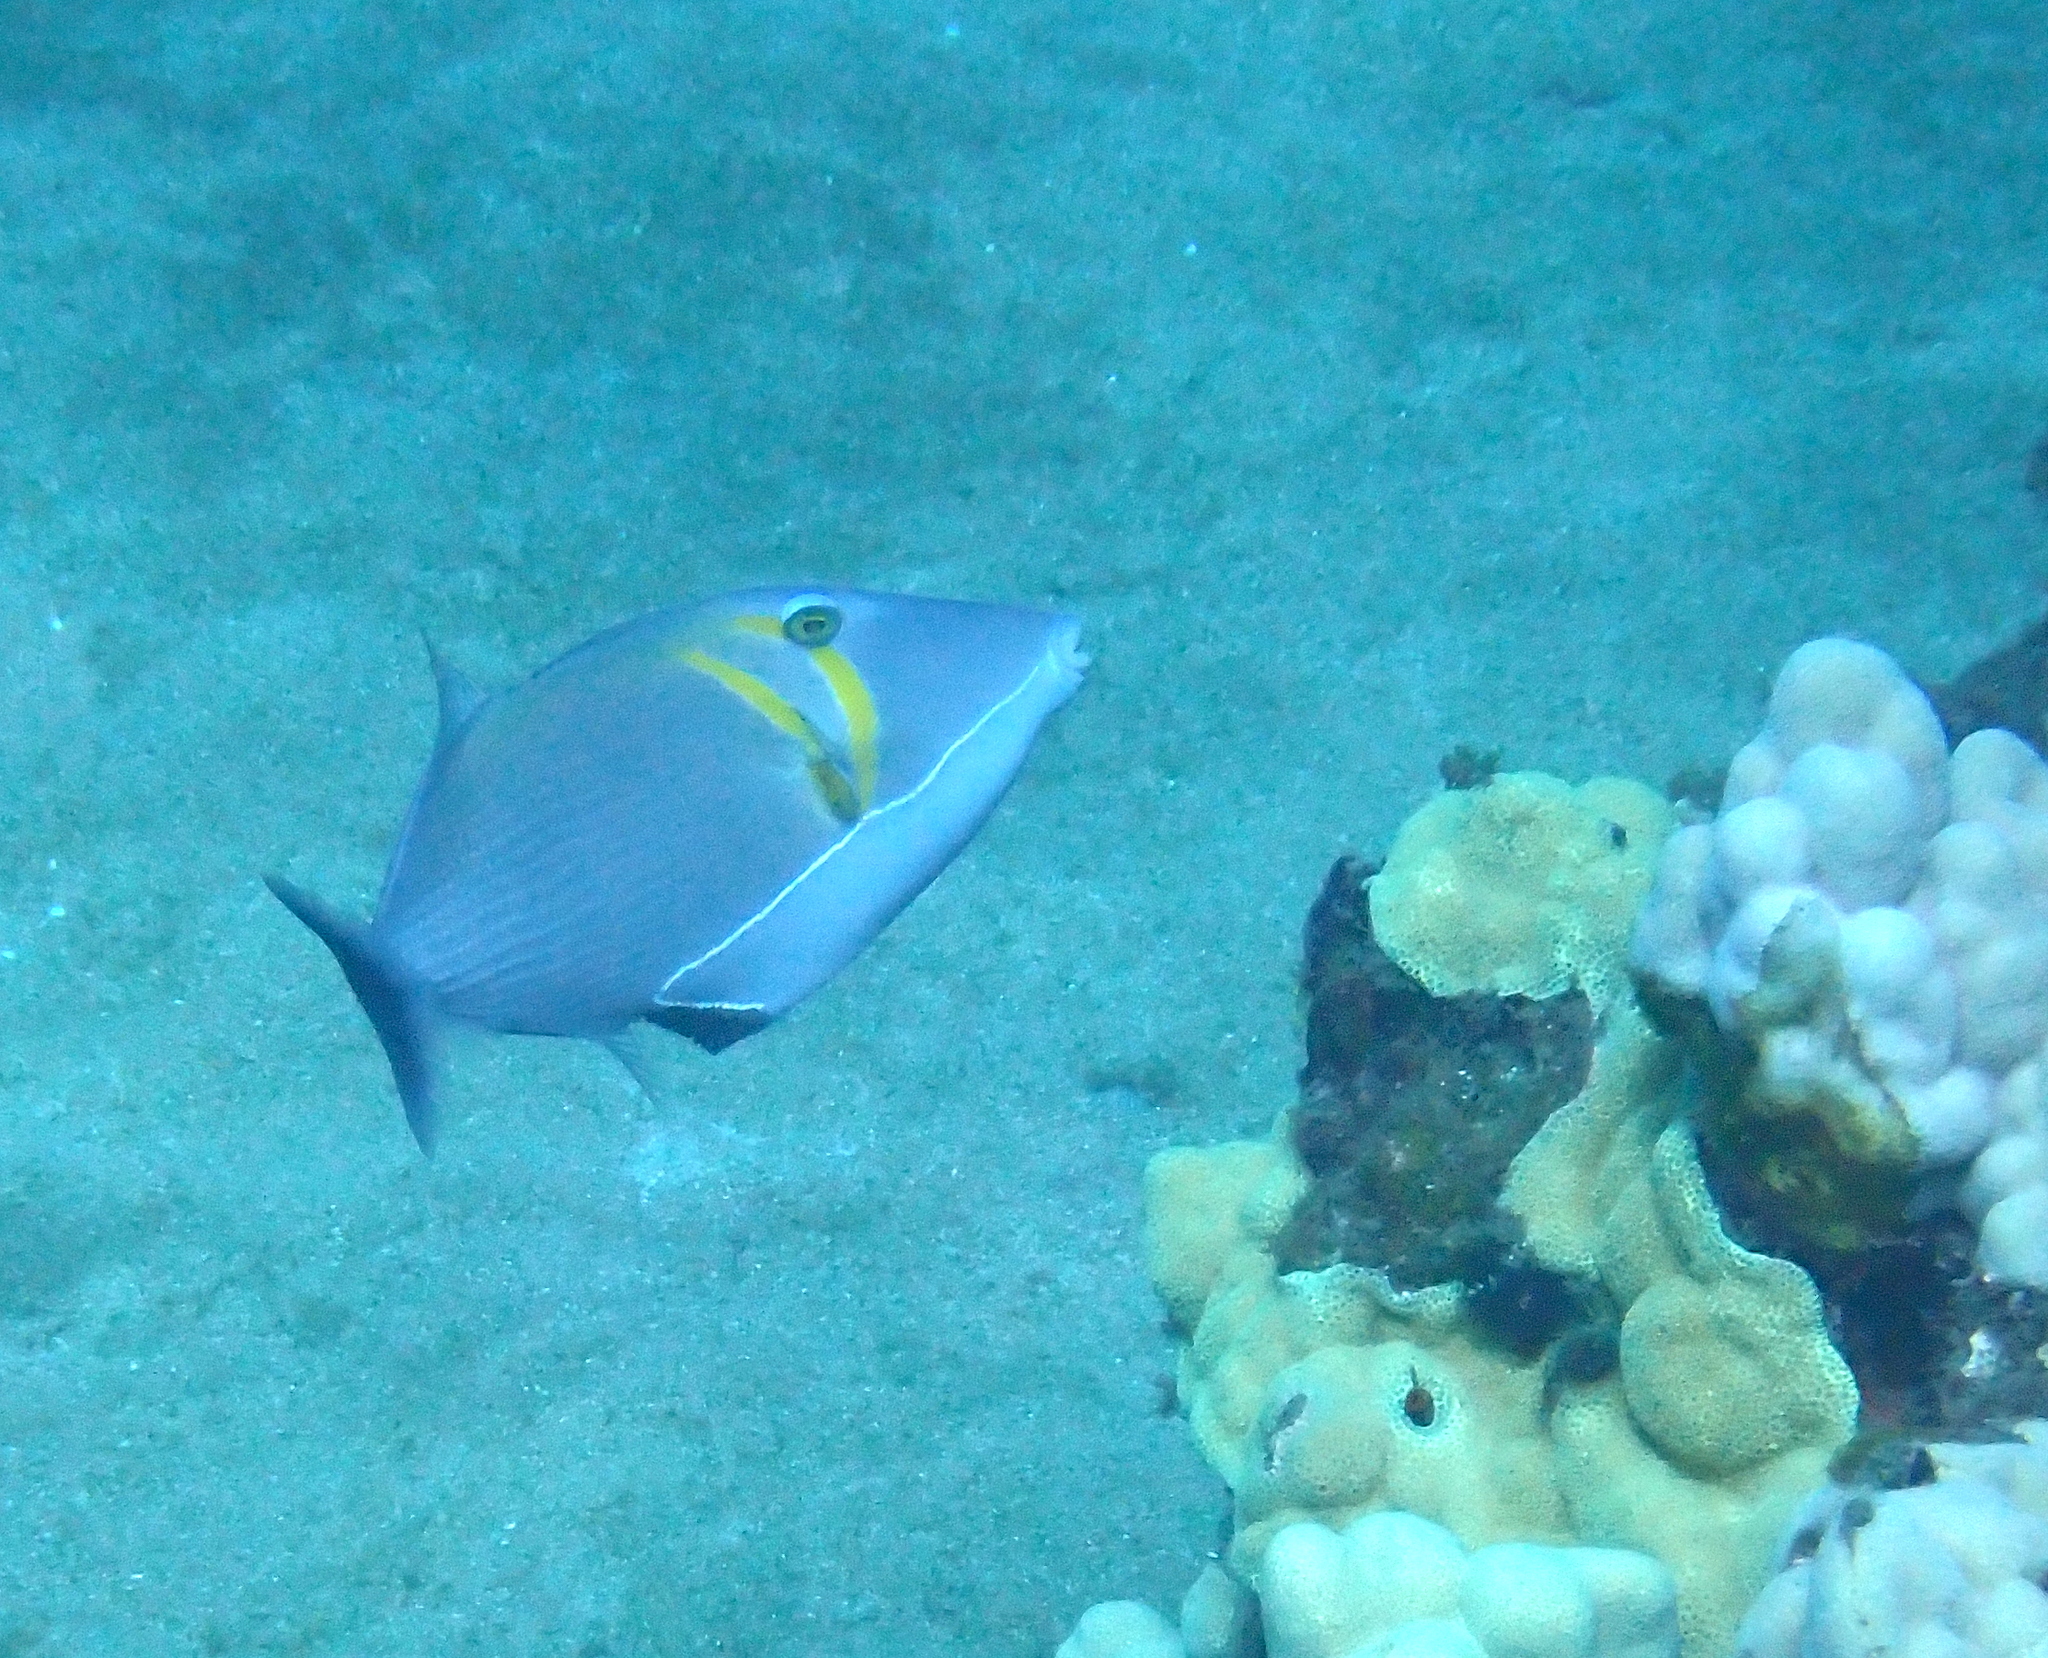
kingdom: Animalia
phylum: Chordata
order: Tetraodontiformes
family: Balistidae
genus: Sufflamen
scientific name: Sufflamen bursa
